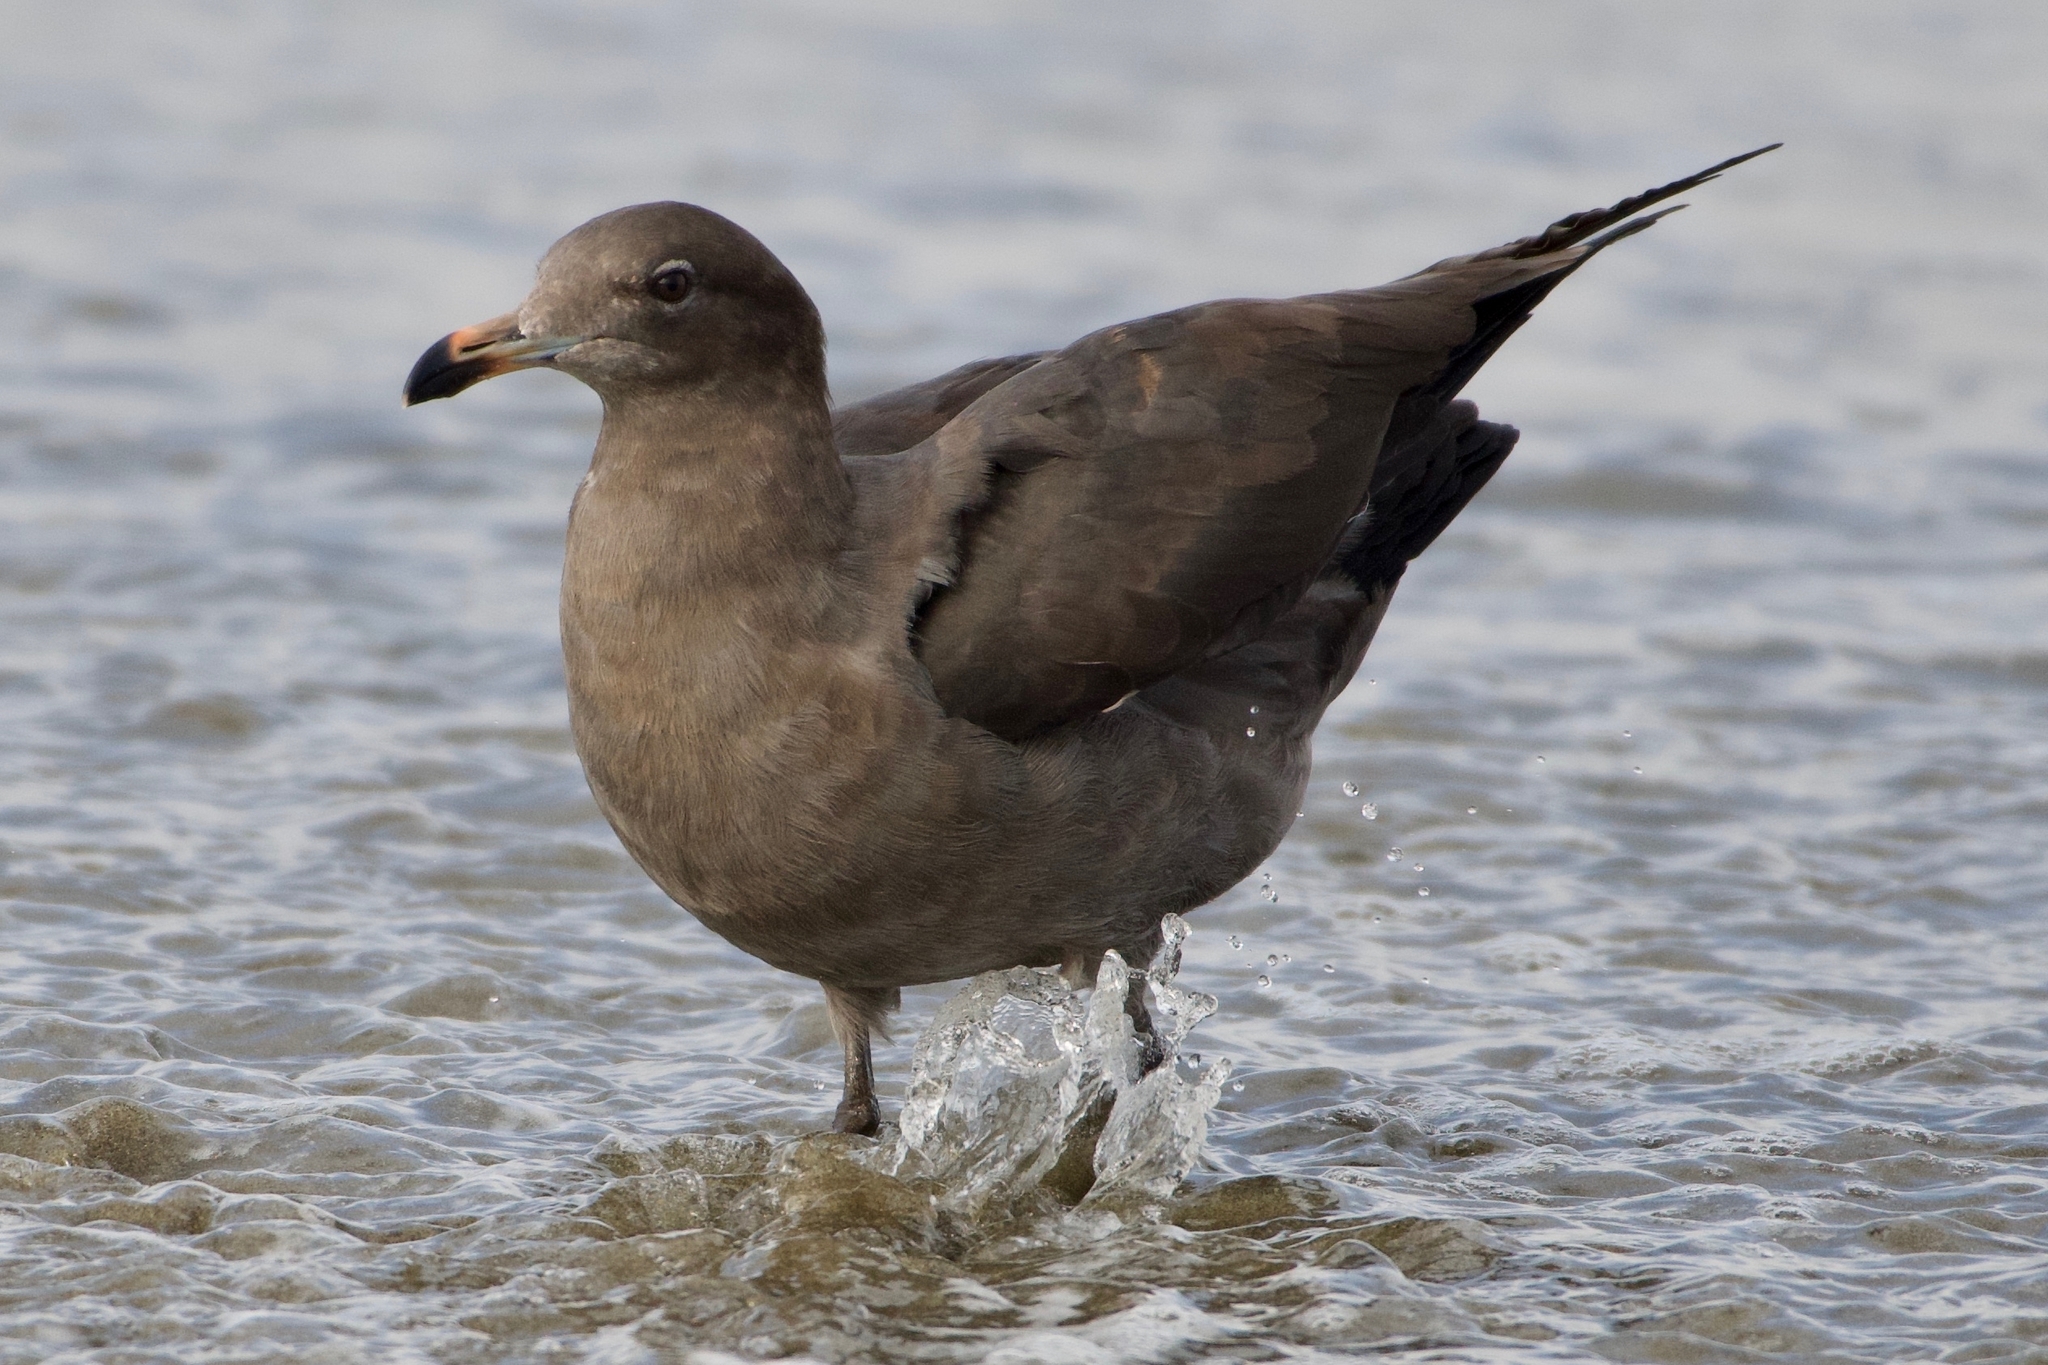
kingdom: Animalia
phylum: Chordata
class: Aves
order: Charadriiformes
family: Laridae
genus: Larus
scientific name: Larus heermanni
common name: Heermann's gull
